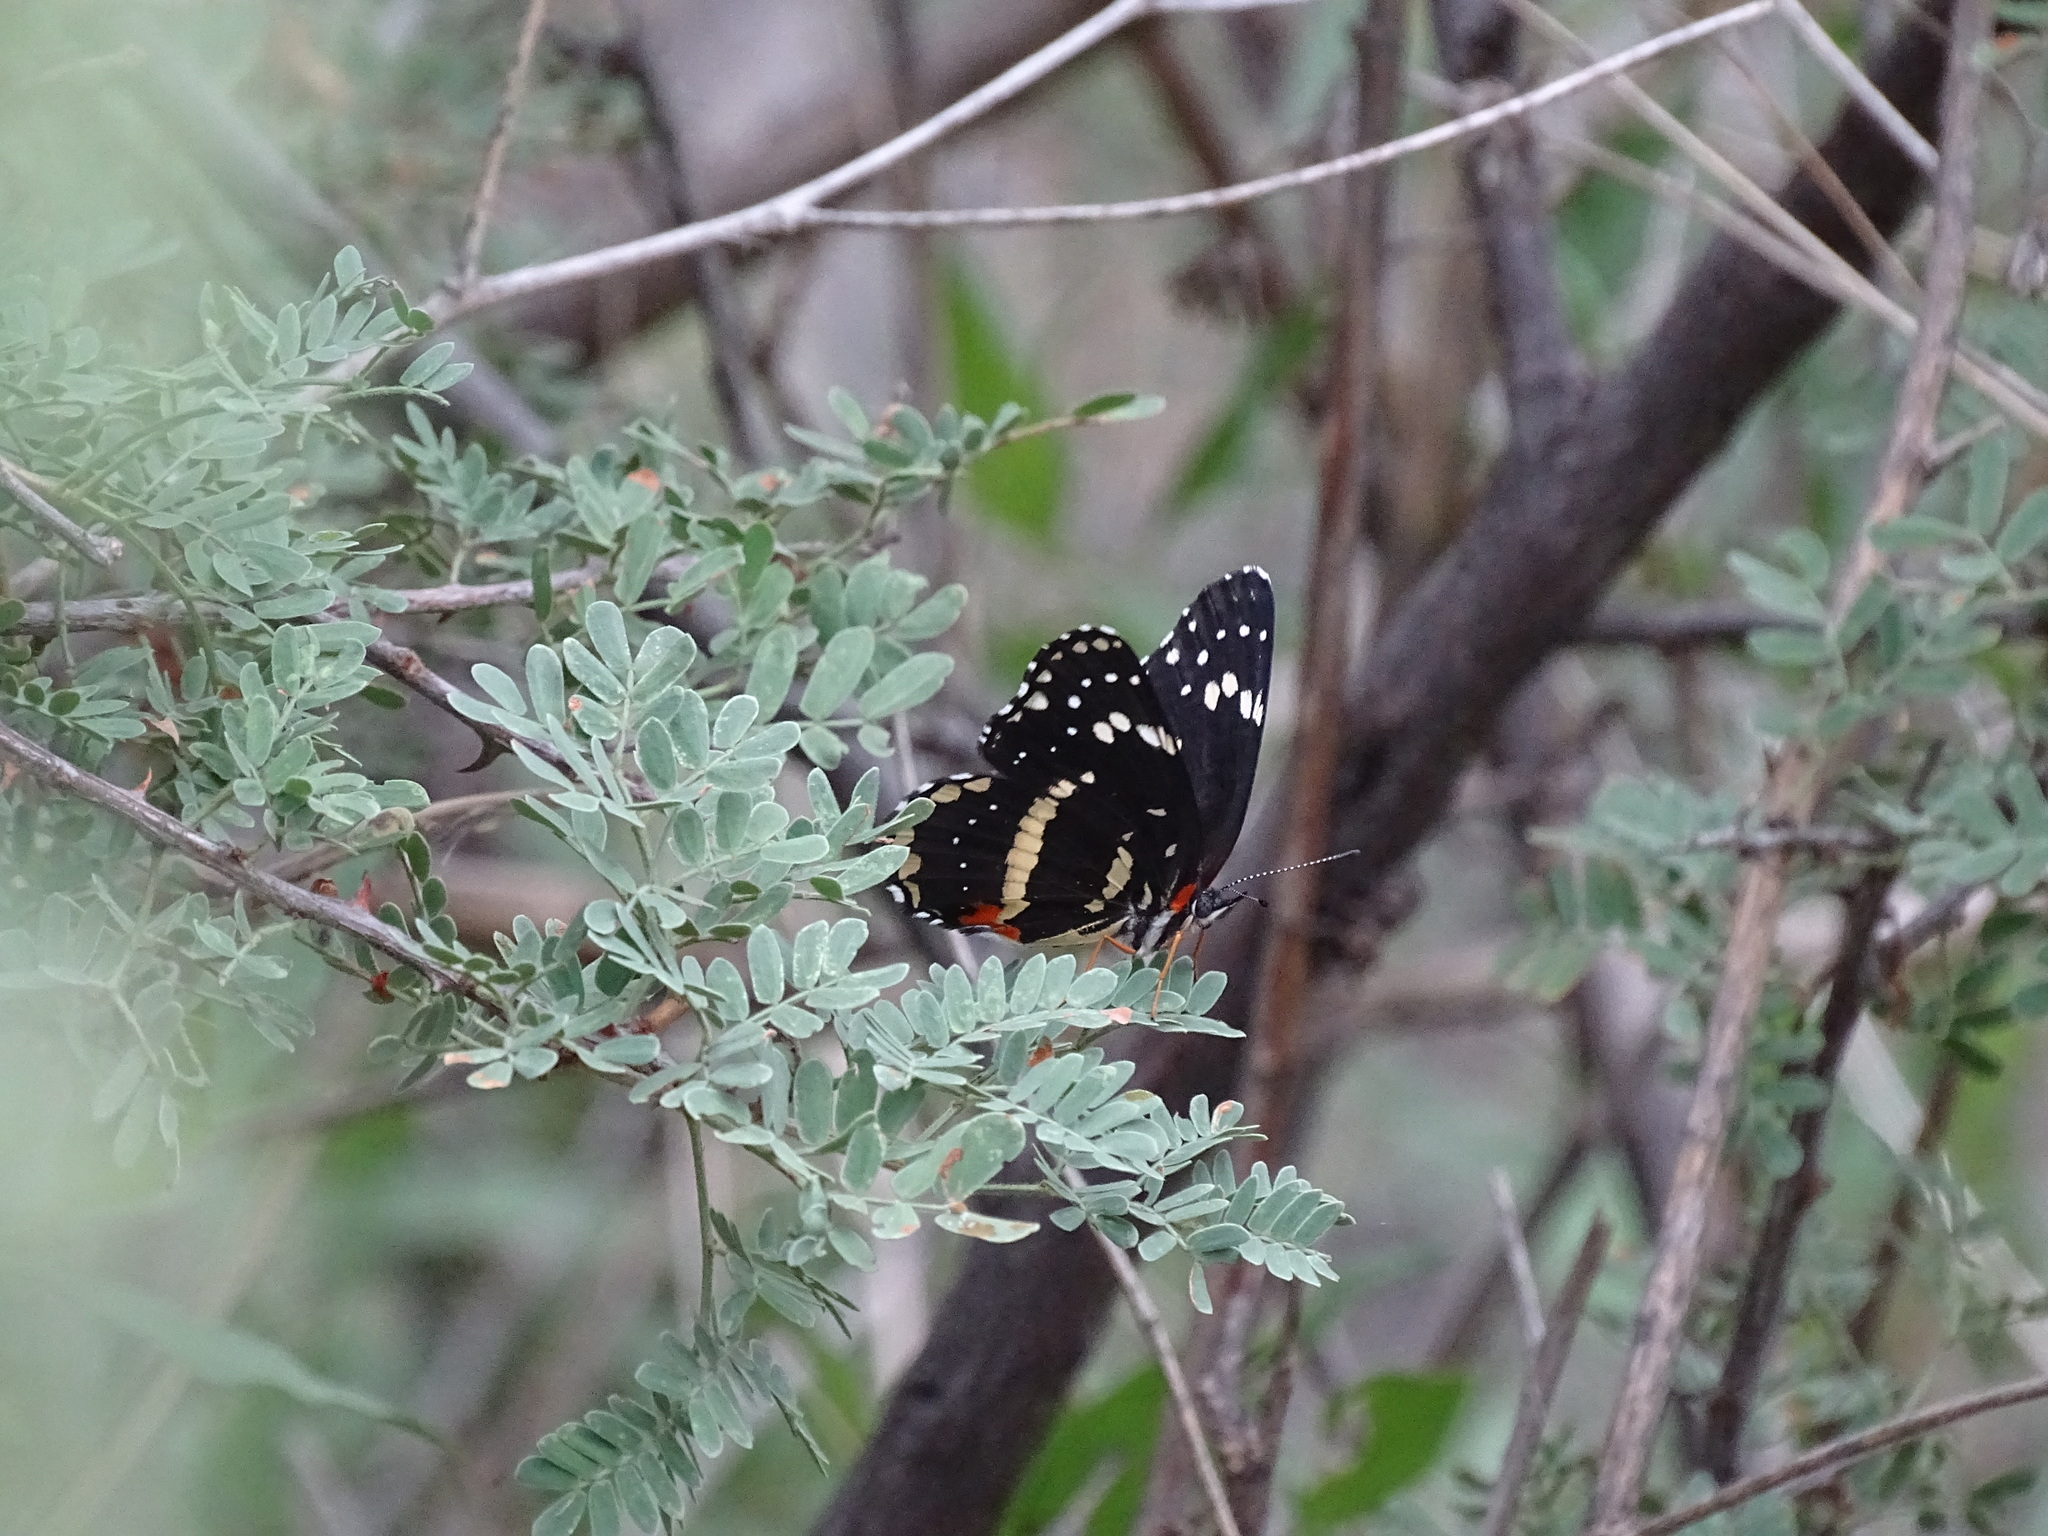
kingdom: Animalia
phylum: Arthropoda
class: Insecta
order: Lepidoptera
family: Nymphalidae
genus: Chlosyne
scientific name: Chlosyne lacinia
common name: Bordered patch
